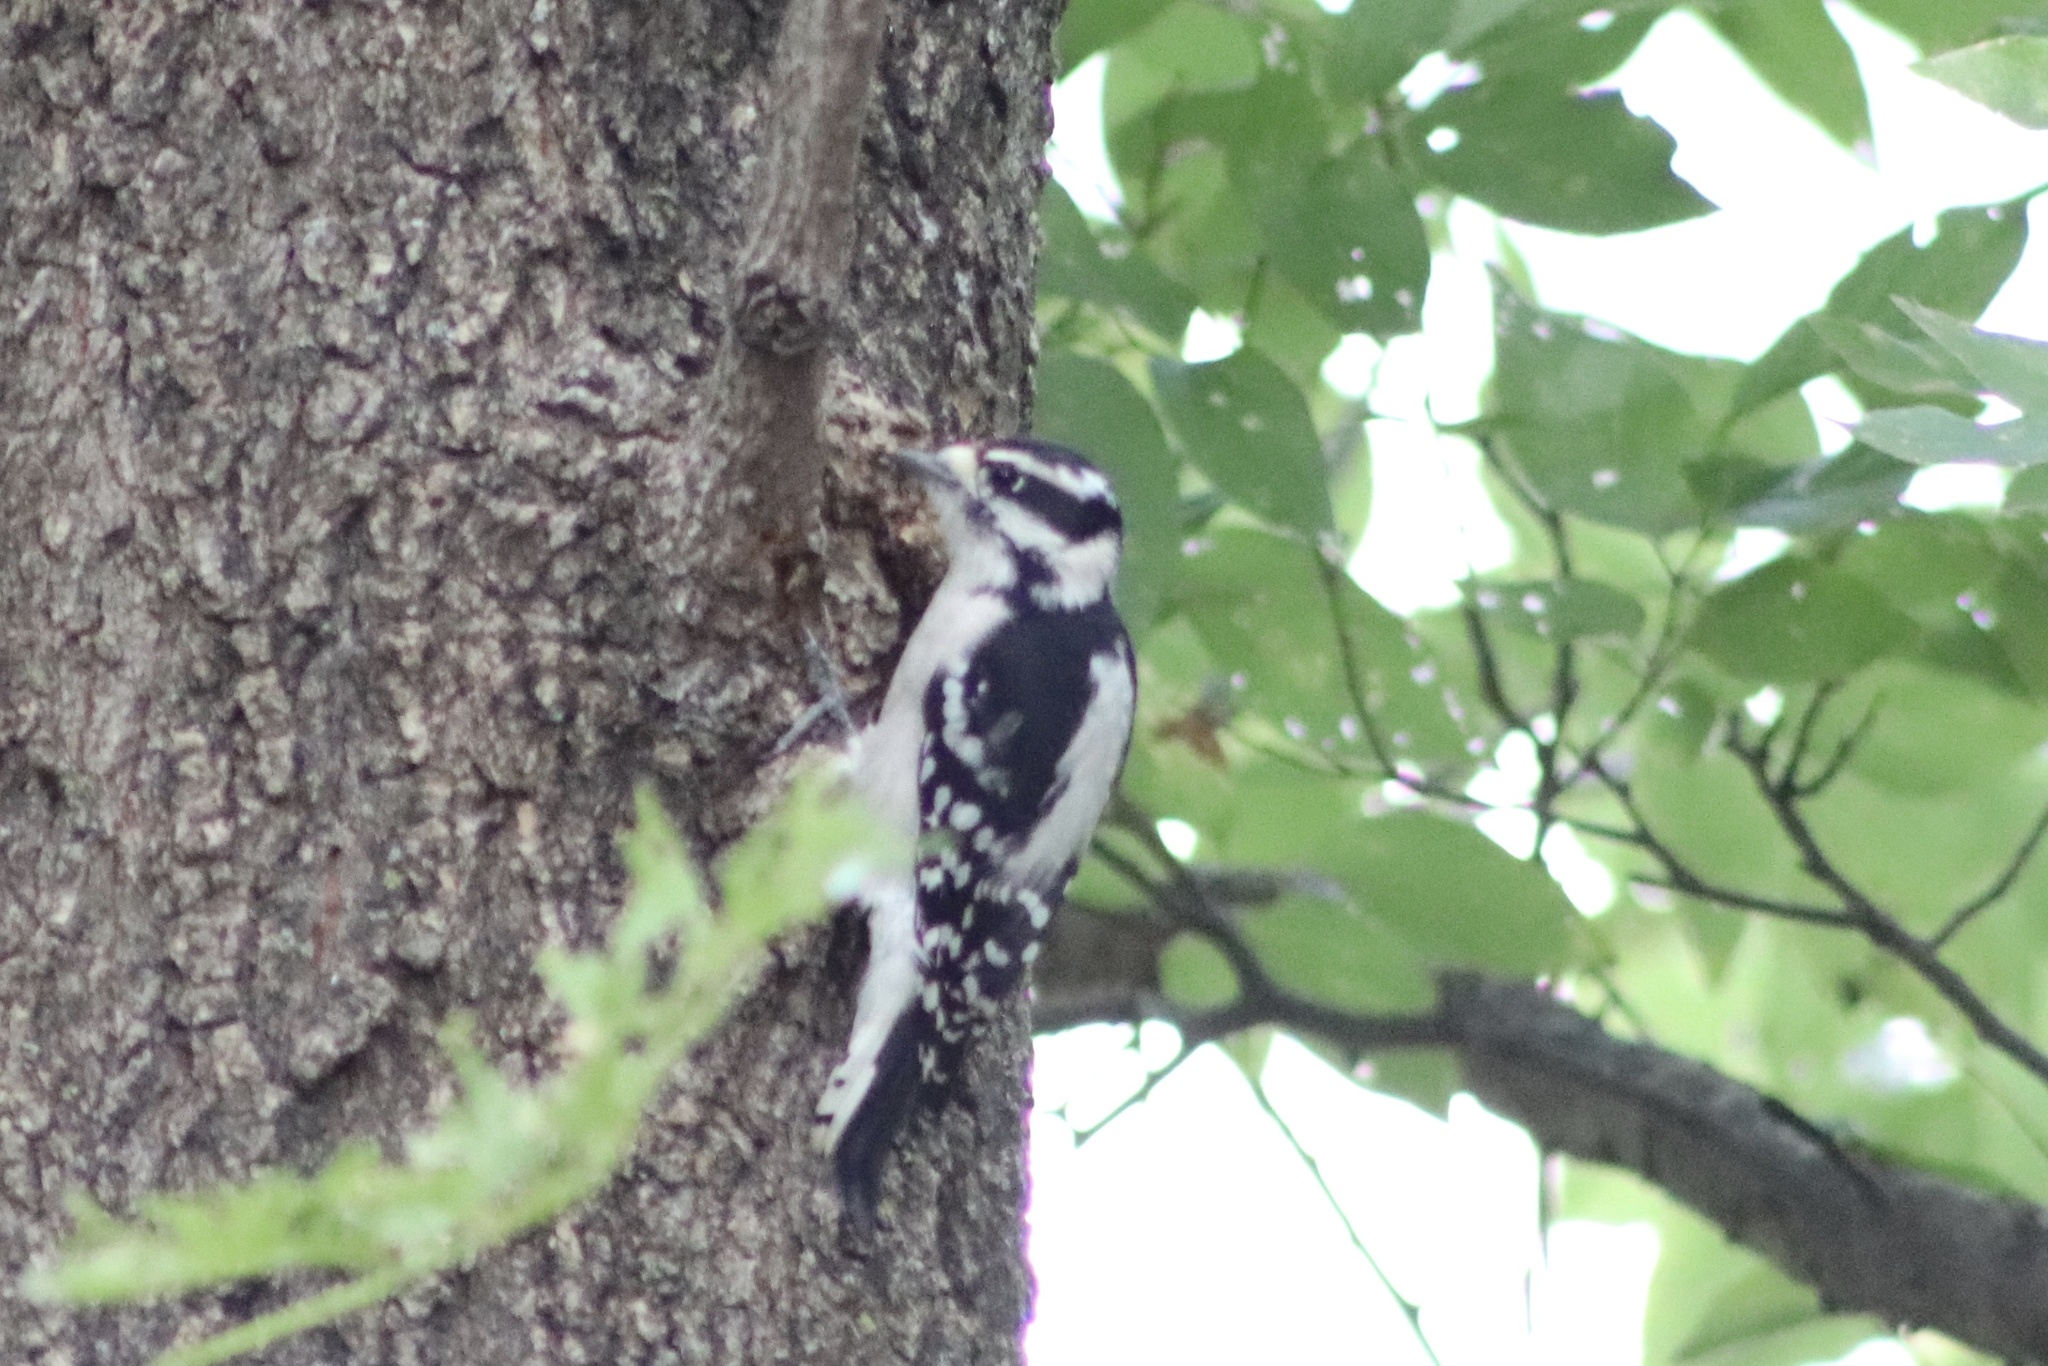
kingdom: Animalia
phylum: Chordata
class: Aves
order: Piciformes
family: Picidae
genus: Dryobates
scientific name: Dryobates pubescens
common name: Downy woodpecker
